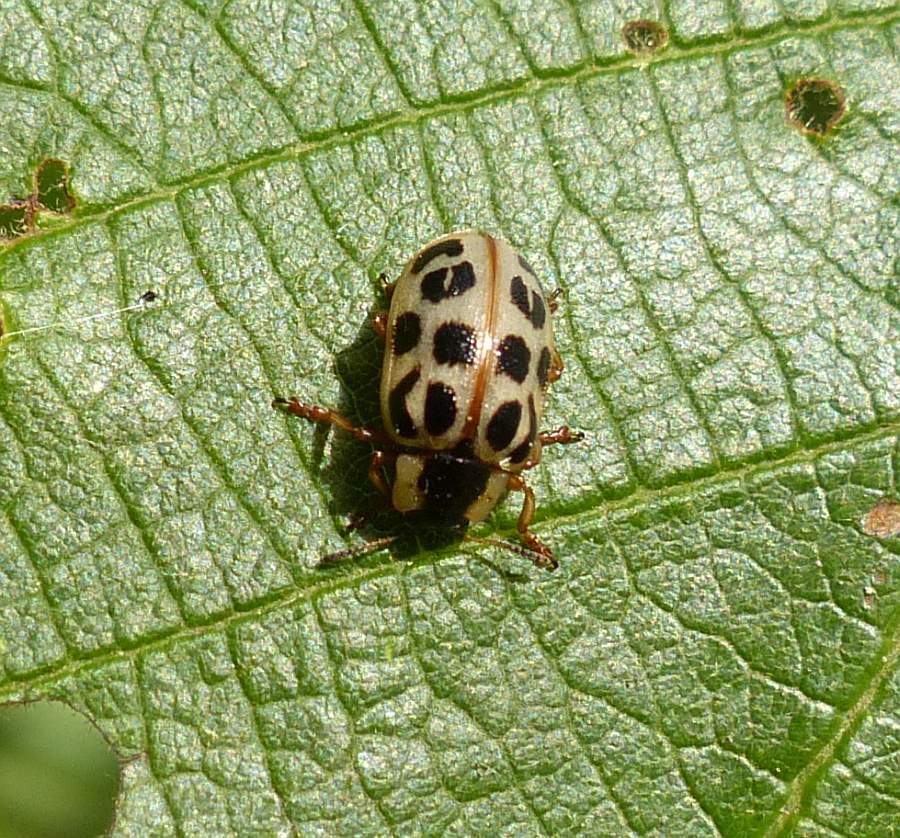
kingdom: Animalia
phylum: Arthropoda
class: Insecta
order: Coleoptera
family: Chrysomelidae
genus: Chrysomela
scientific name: Chrysomela mainensis
